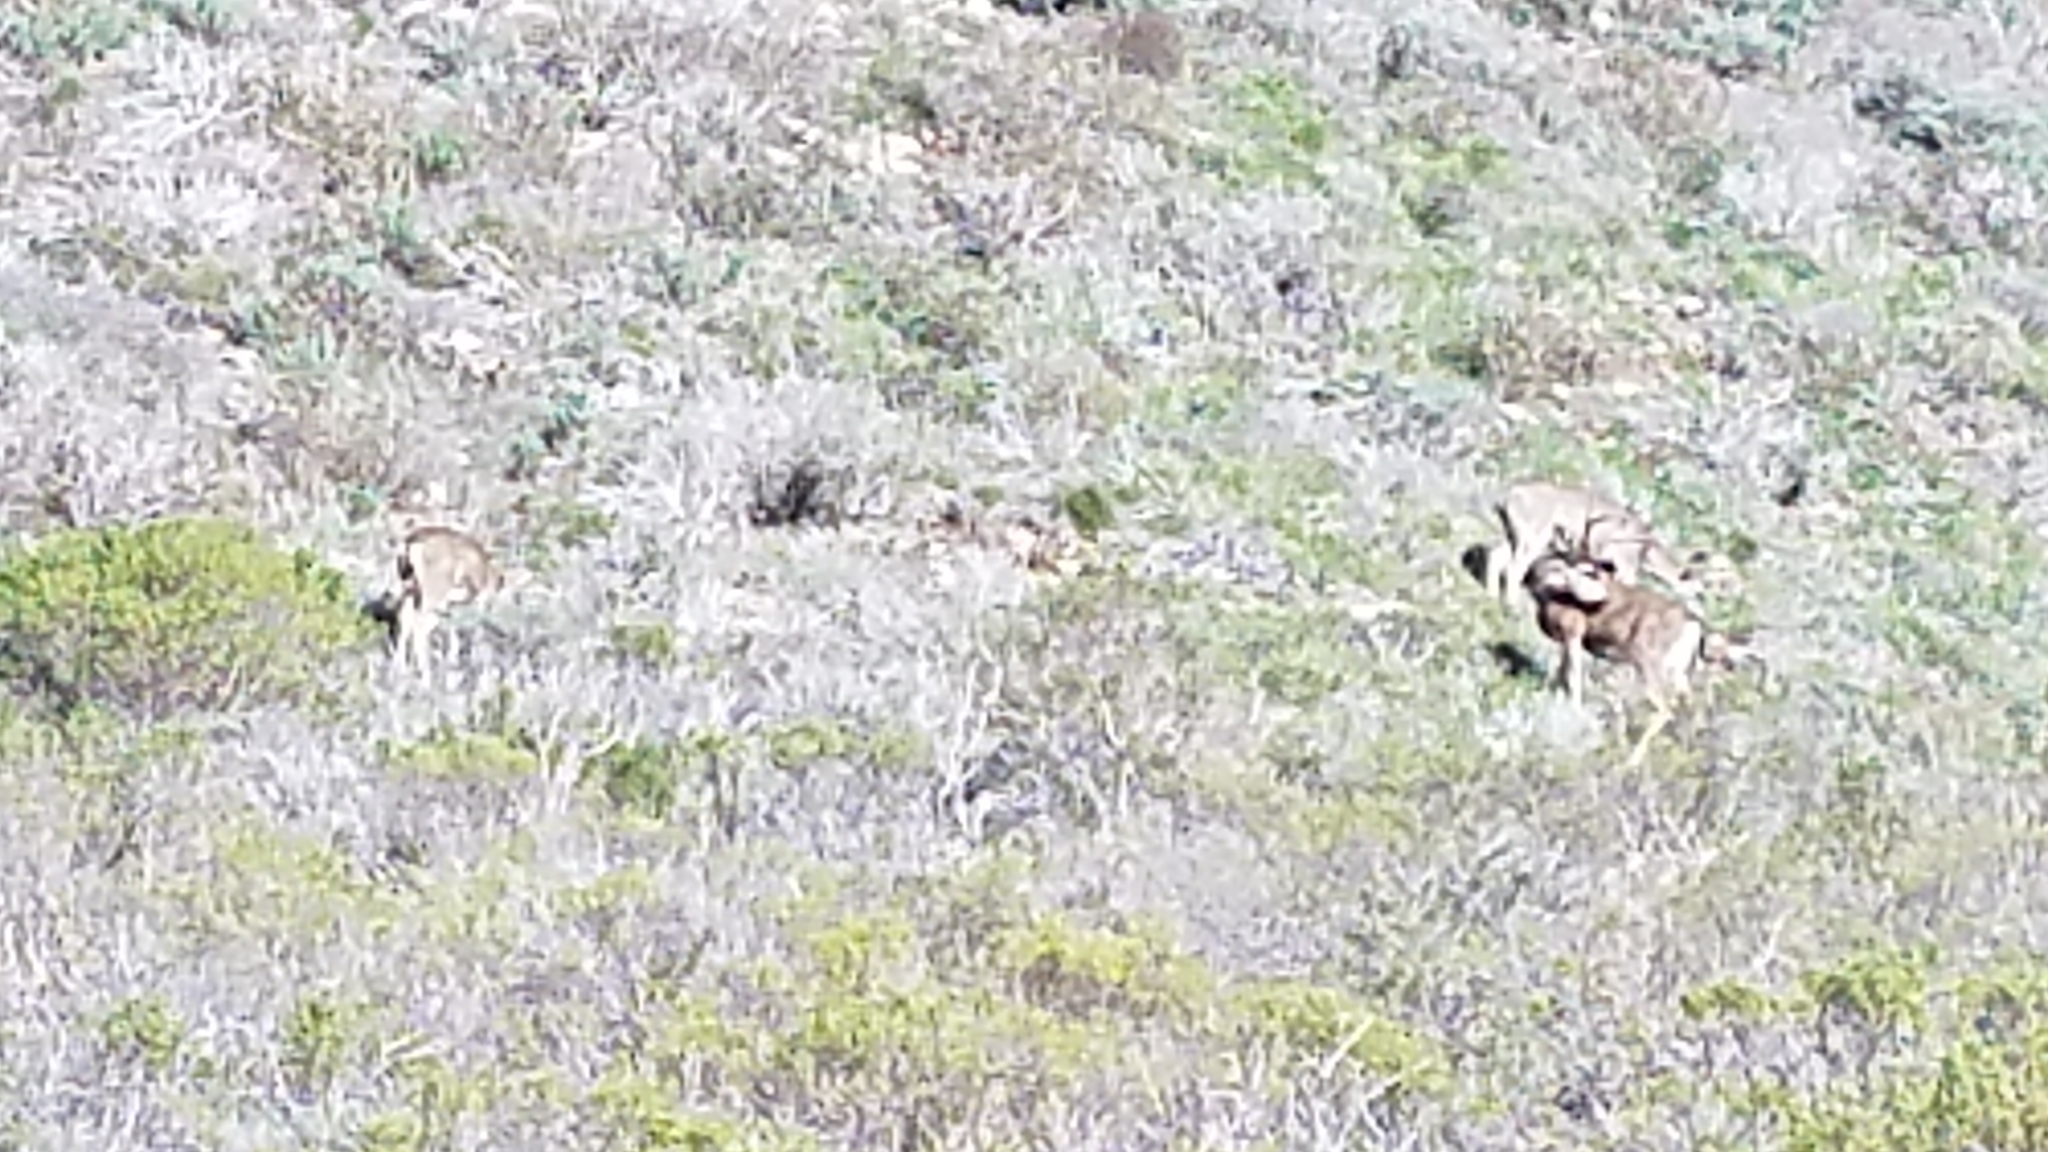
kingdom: Animalia
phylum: Chordata
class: Mammalia
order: Artiodactyla
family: Cervidae
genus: Odocoileus
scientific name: Odocoileus hemionus
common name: Mule deer
